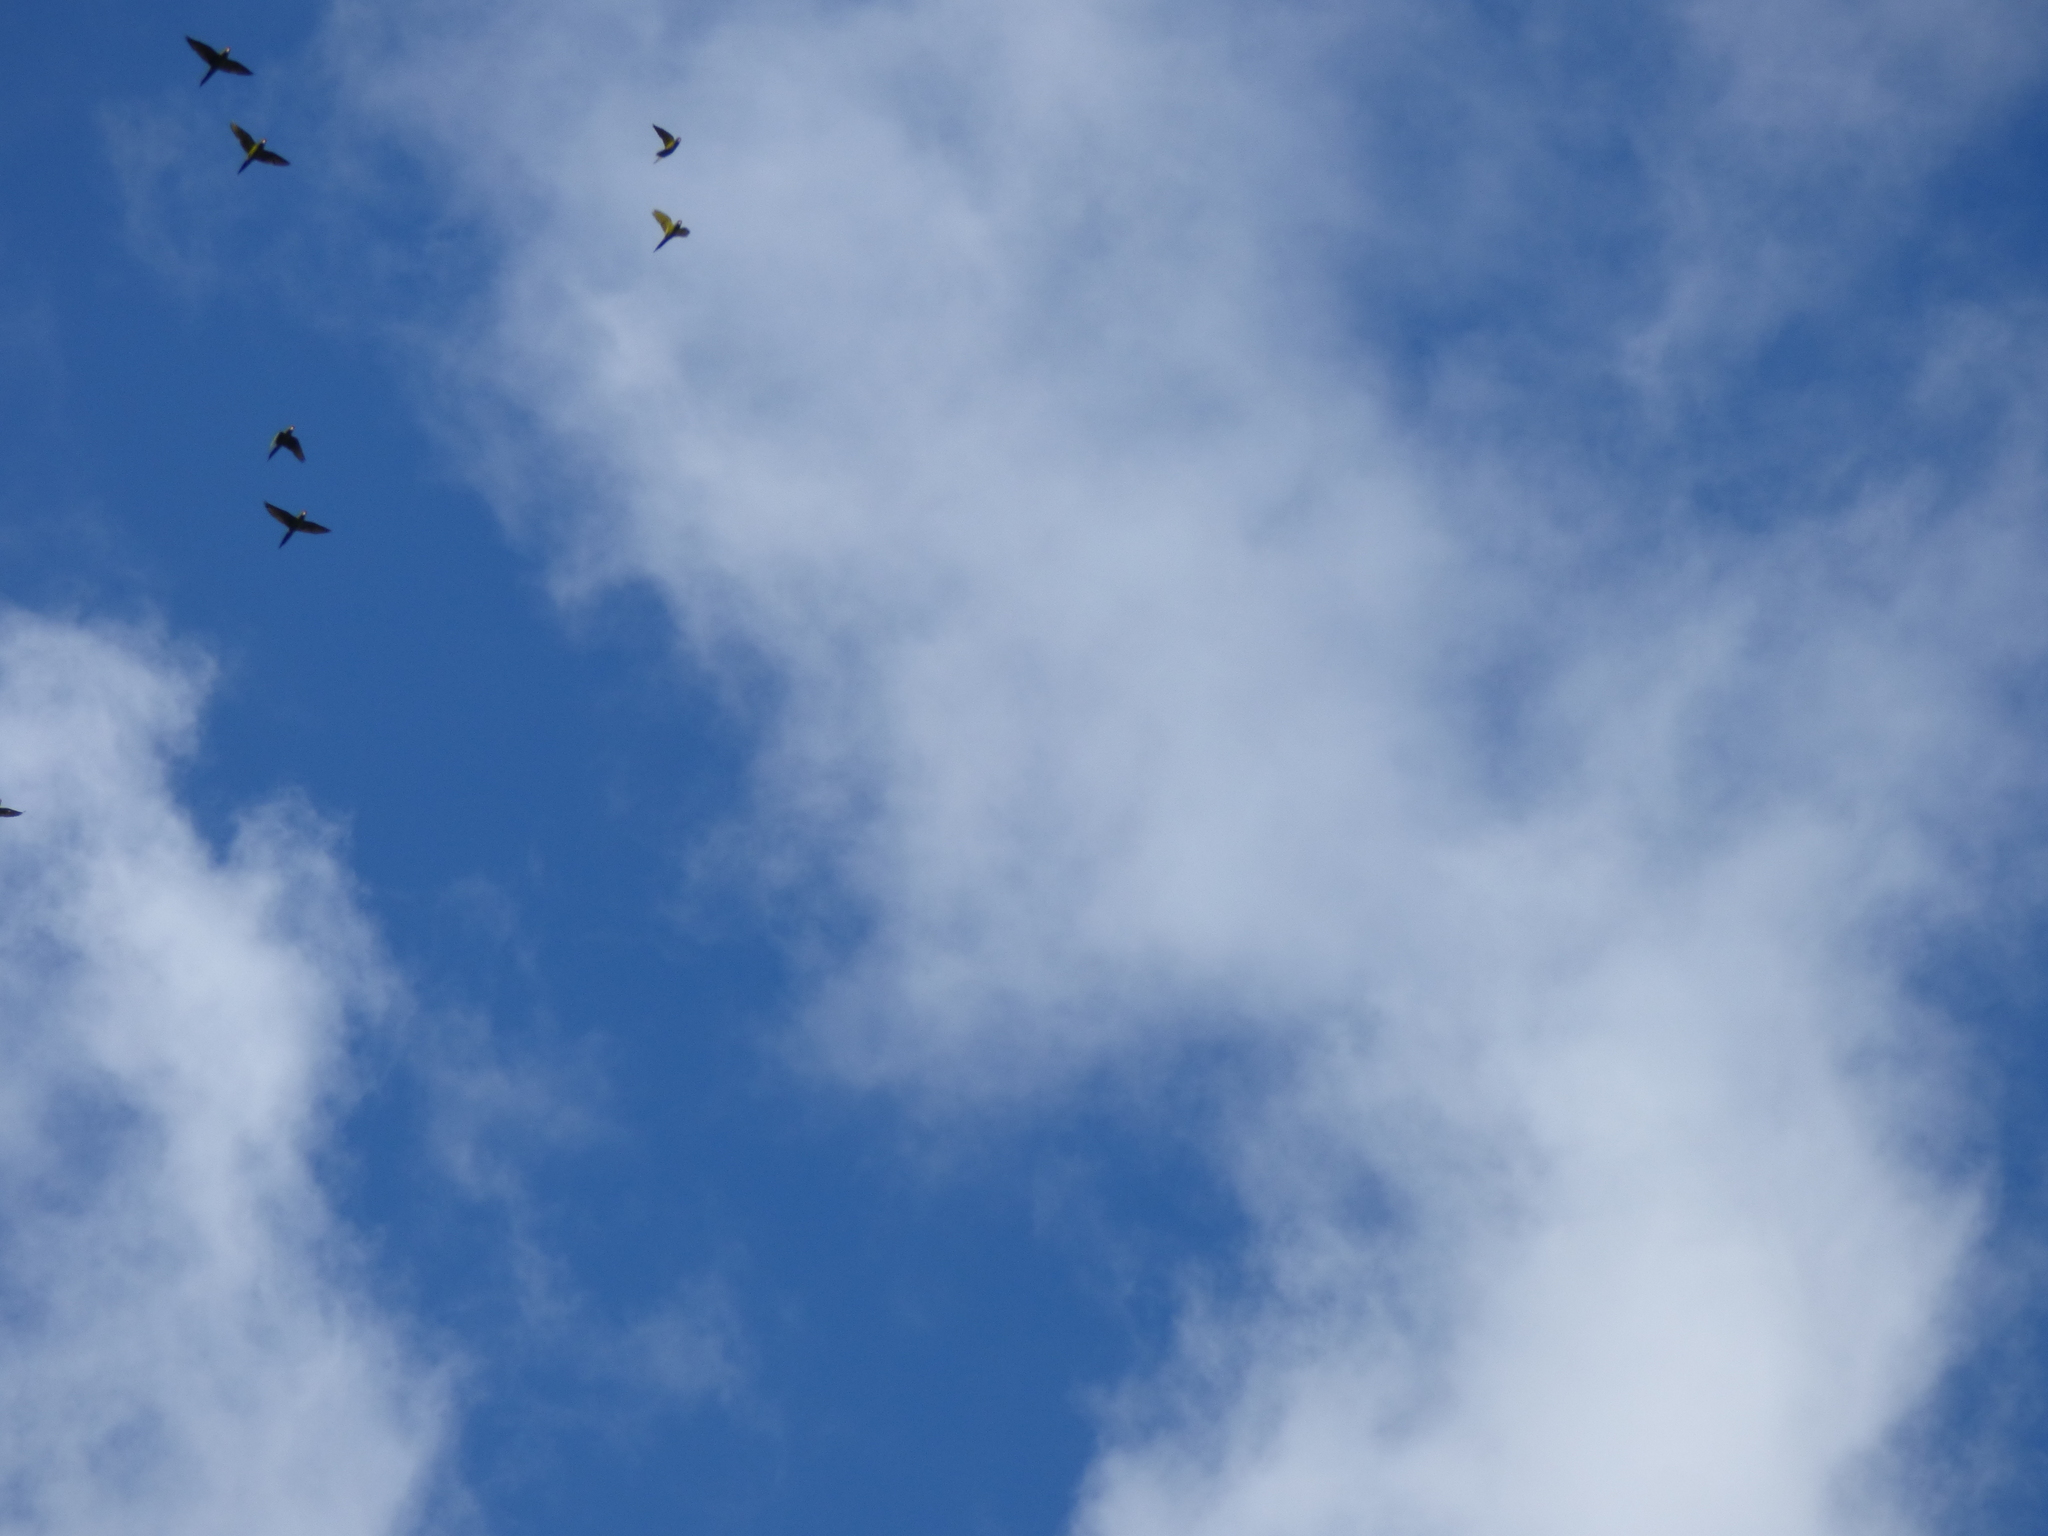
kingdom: Animalia
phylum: Chordata
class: Aves
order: Psittaciformes
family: Psittacidae
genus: Ognorhynchus
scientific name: Ognorhynchus icterotis
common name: Yellow-eared parrot
